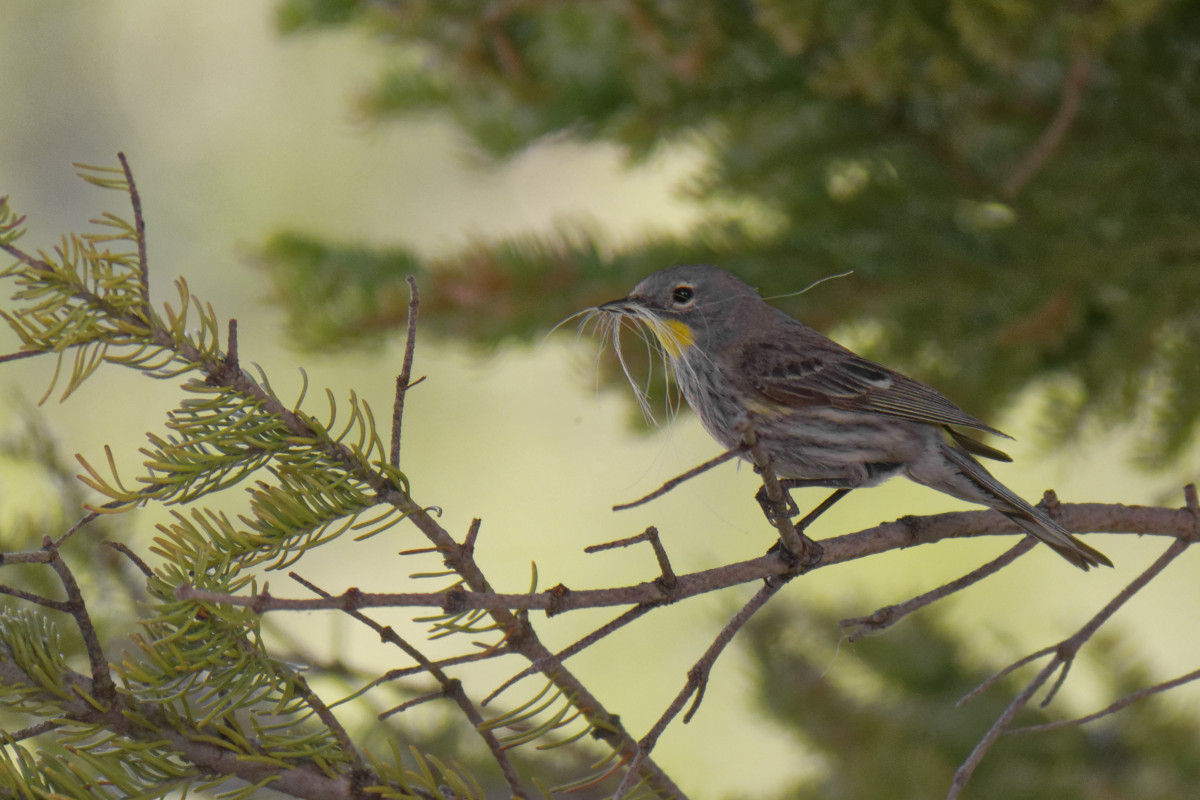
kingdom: Animalia
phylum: Chordata
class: Aves
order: Passeriformes
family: Parulidae
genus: Setophaga
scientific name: Setophaga coronata
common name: Myrtle warbler
